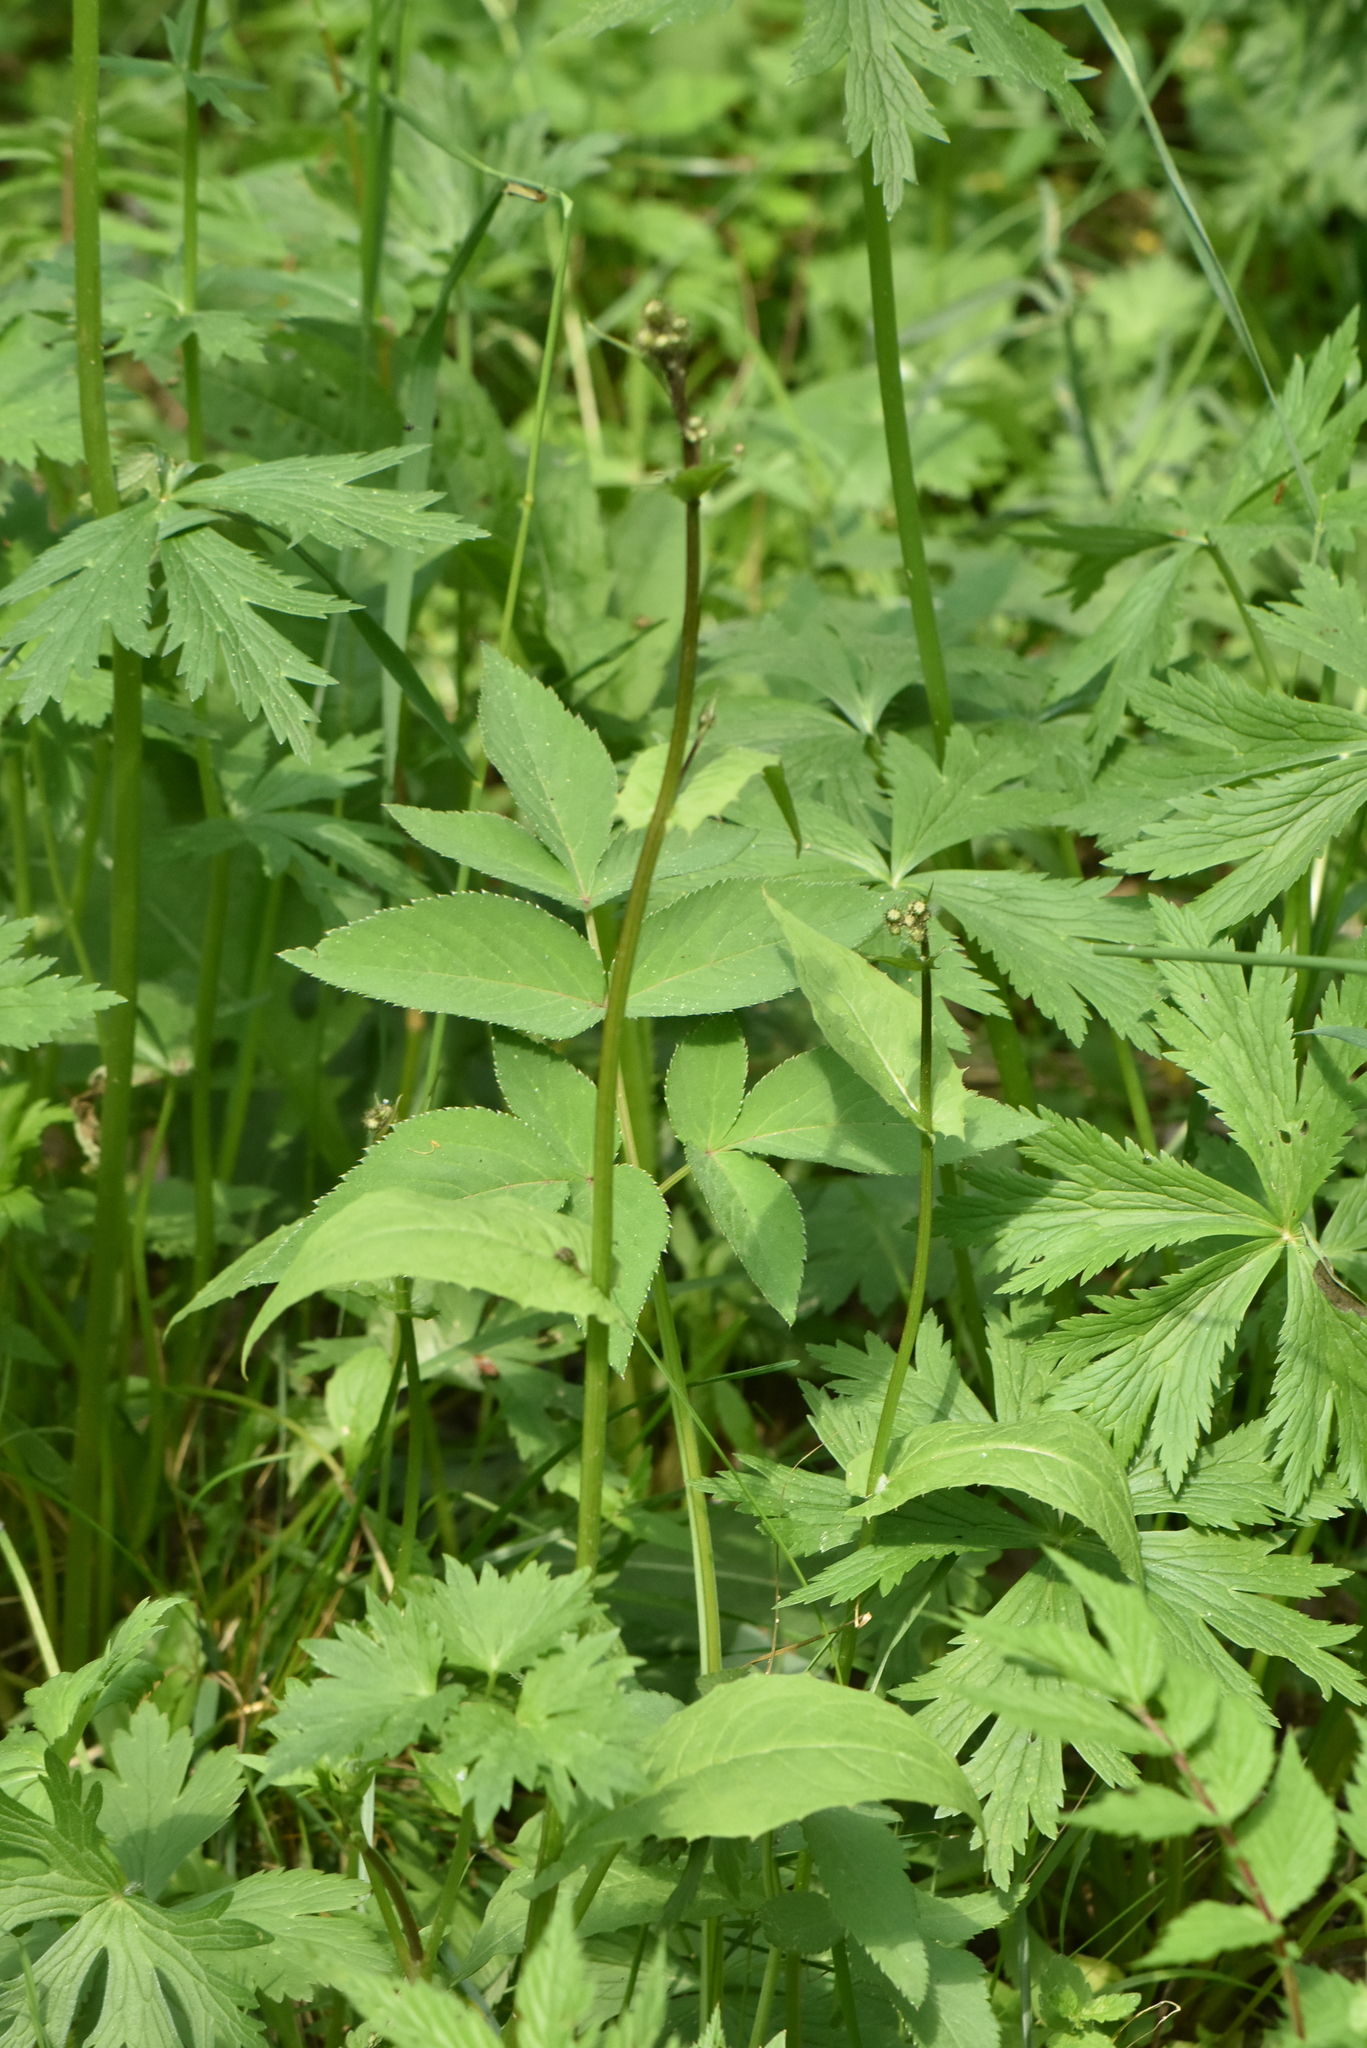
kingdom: Plantae
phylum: Tracheophyta
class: Magnoliopsida
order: Asterales
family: Asteraceae
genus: Crepis
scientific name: Crepis paludosa
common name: Marsh hawk's-beard
